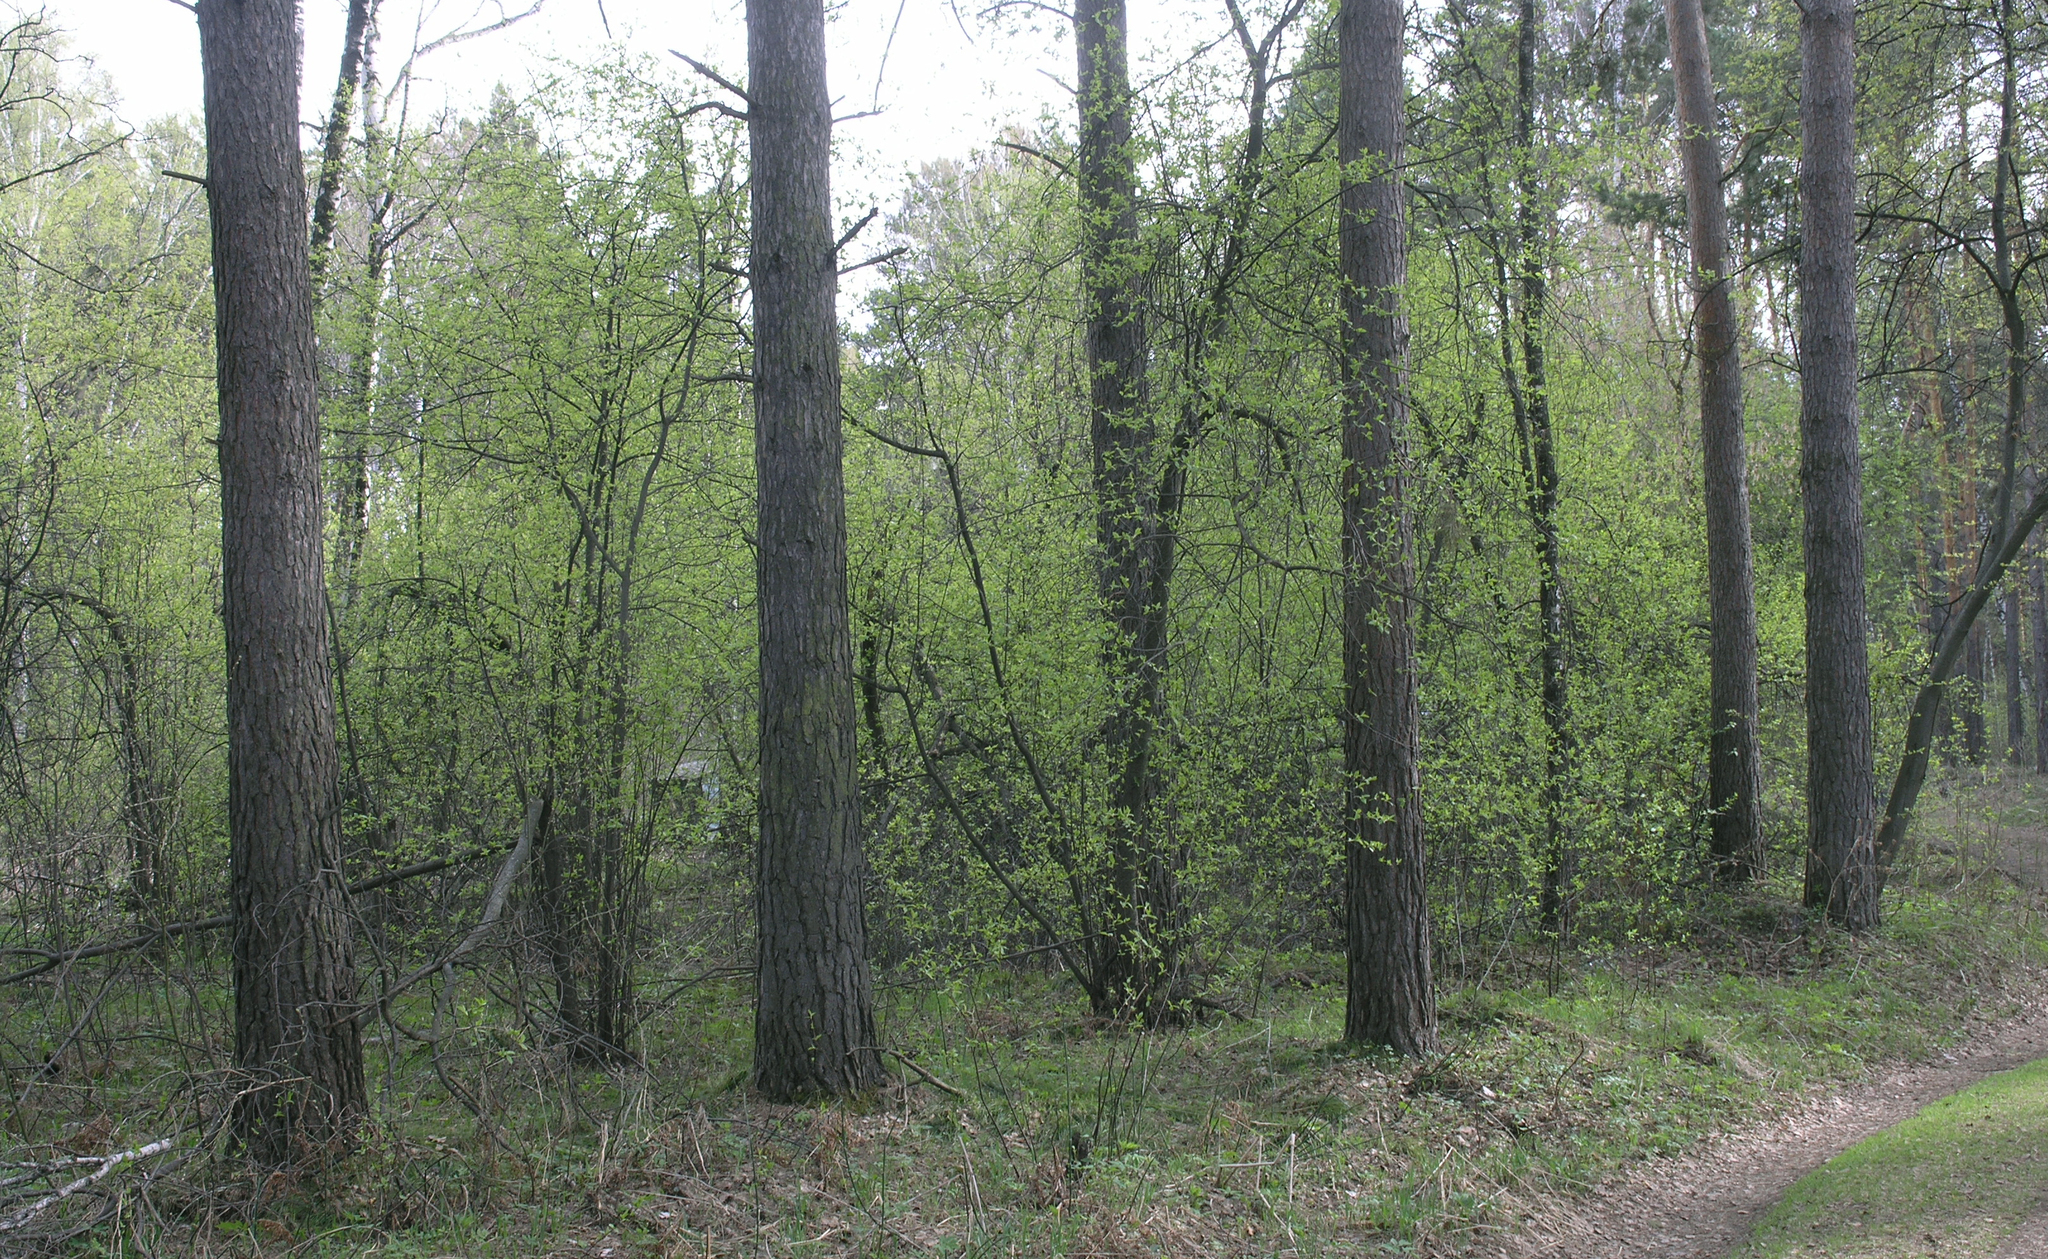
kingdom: Plantae
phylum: Tracheophyta
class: Magnoliopsida
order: Rosales
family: Rosaceae
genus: Prunus
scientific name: Prunus padus
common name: Bird cherry
